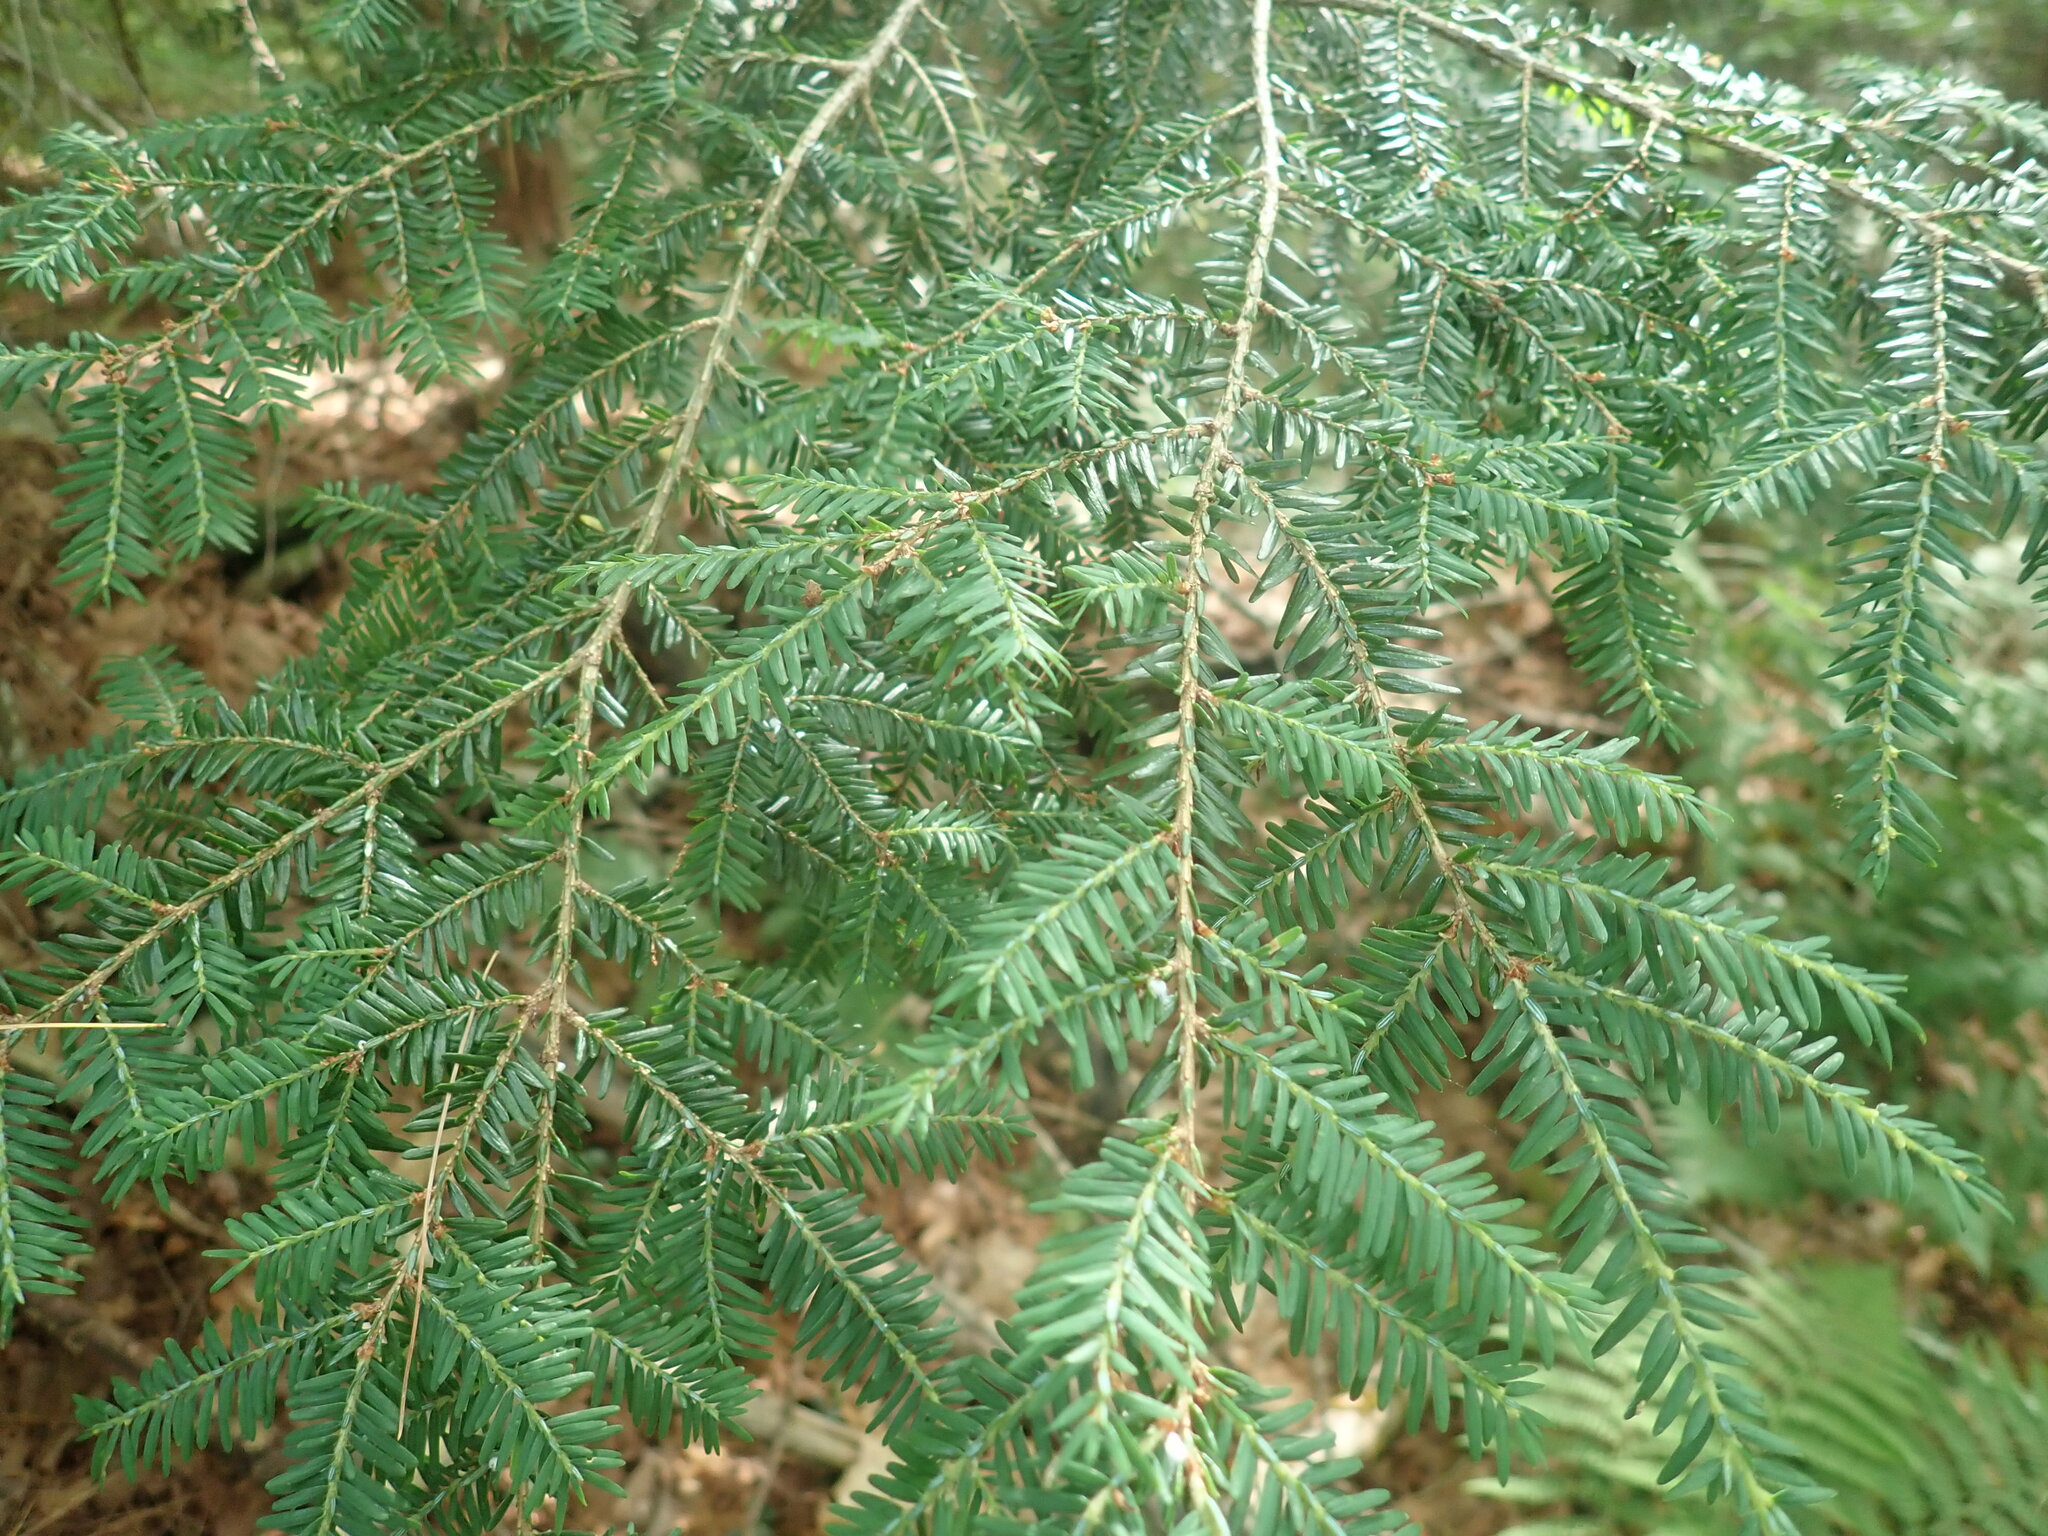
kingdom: Plantae
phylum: Tracheophyta
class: Pinopsida
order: Pinales
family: Pinaceae
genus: Tsuga
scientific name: Tsuga canadensis
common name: Eastern hemlock
